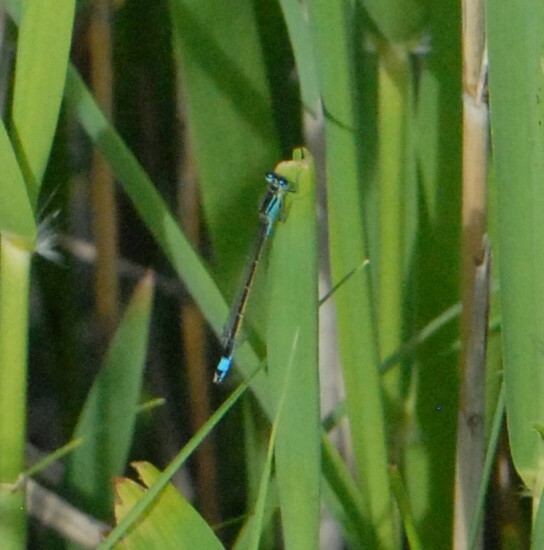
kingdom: Animalia
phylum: Arthropoda
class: Insecta
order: Odonata
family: Coenagrionidae
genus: Ischnura
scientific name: Ischnura elegans
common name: Blue-tailed damselfly
